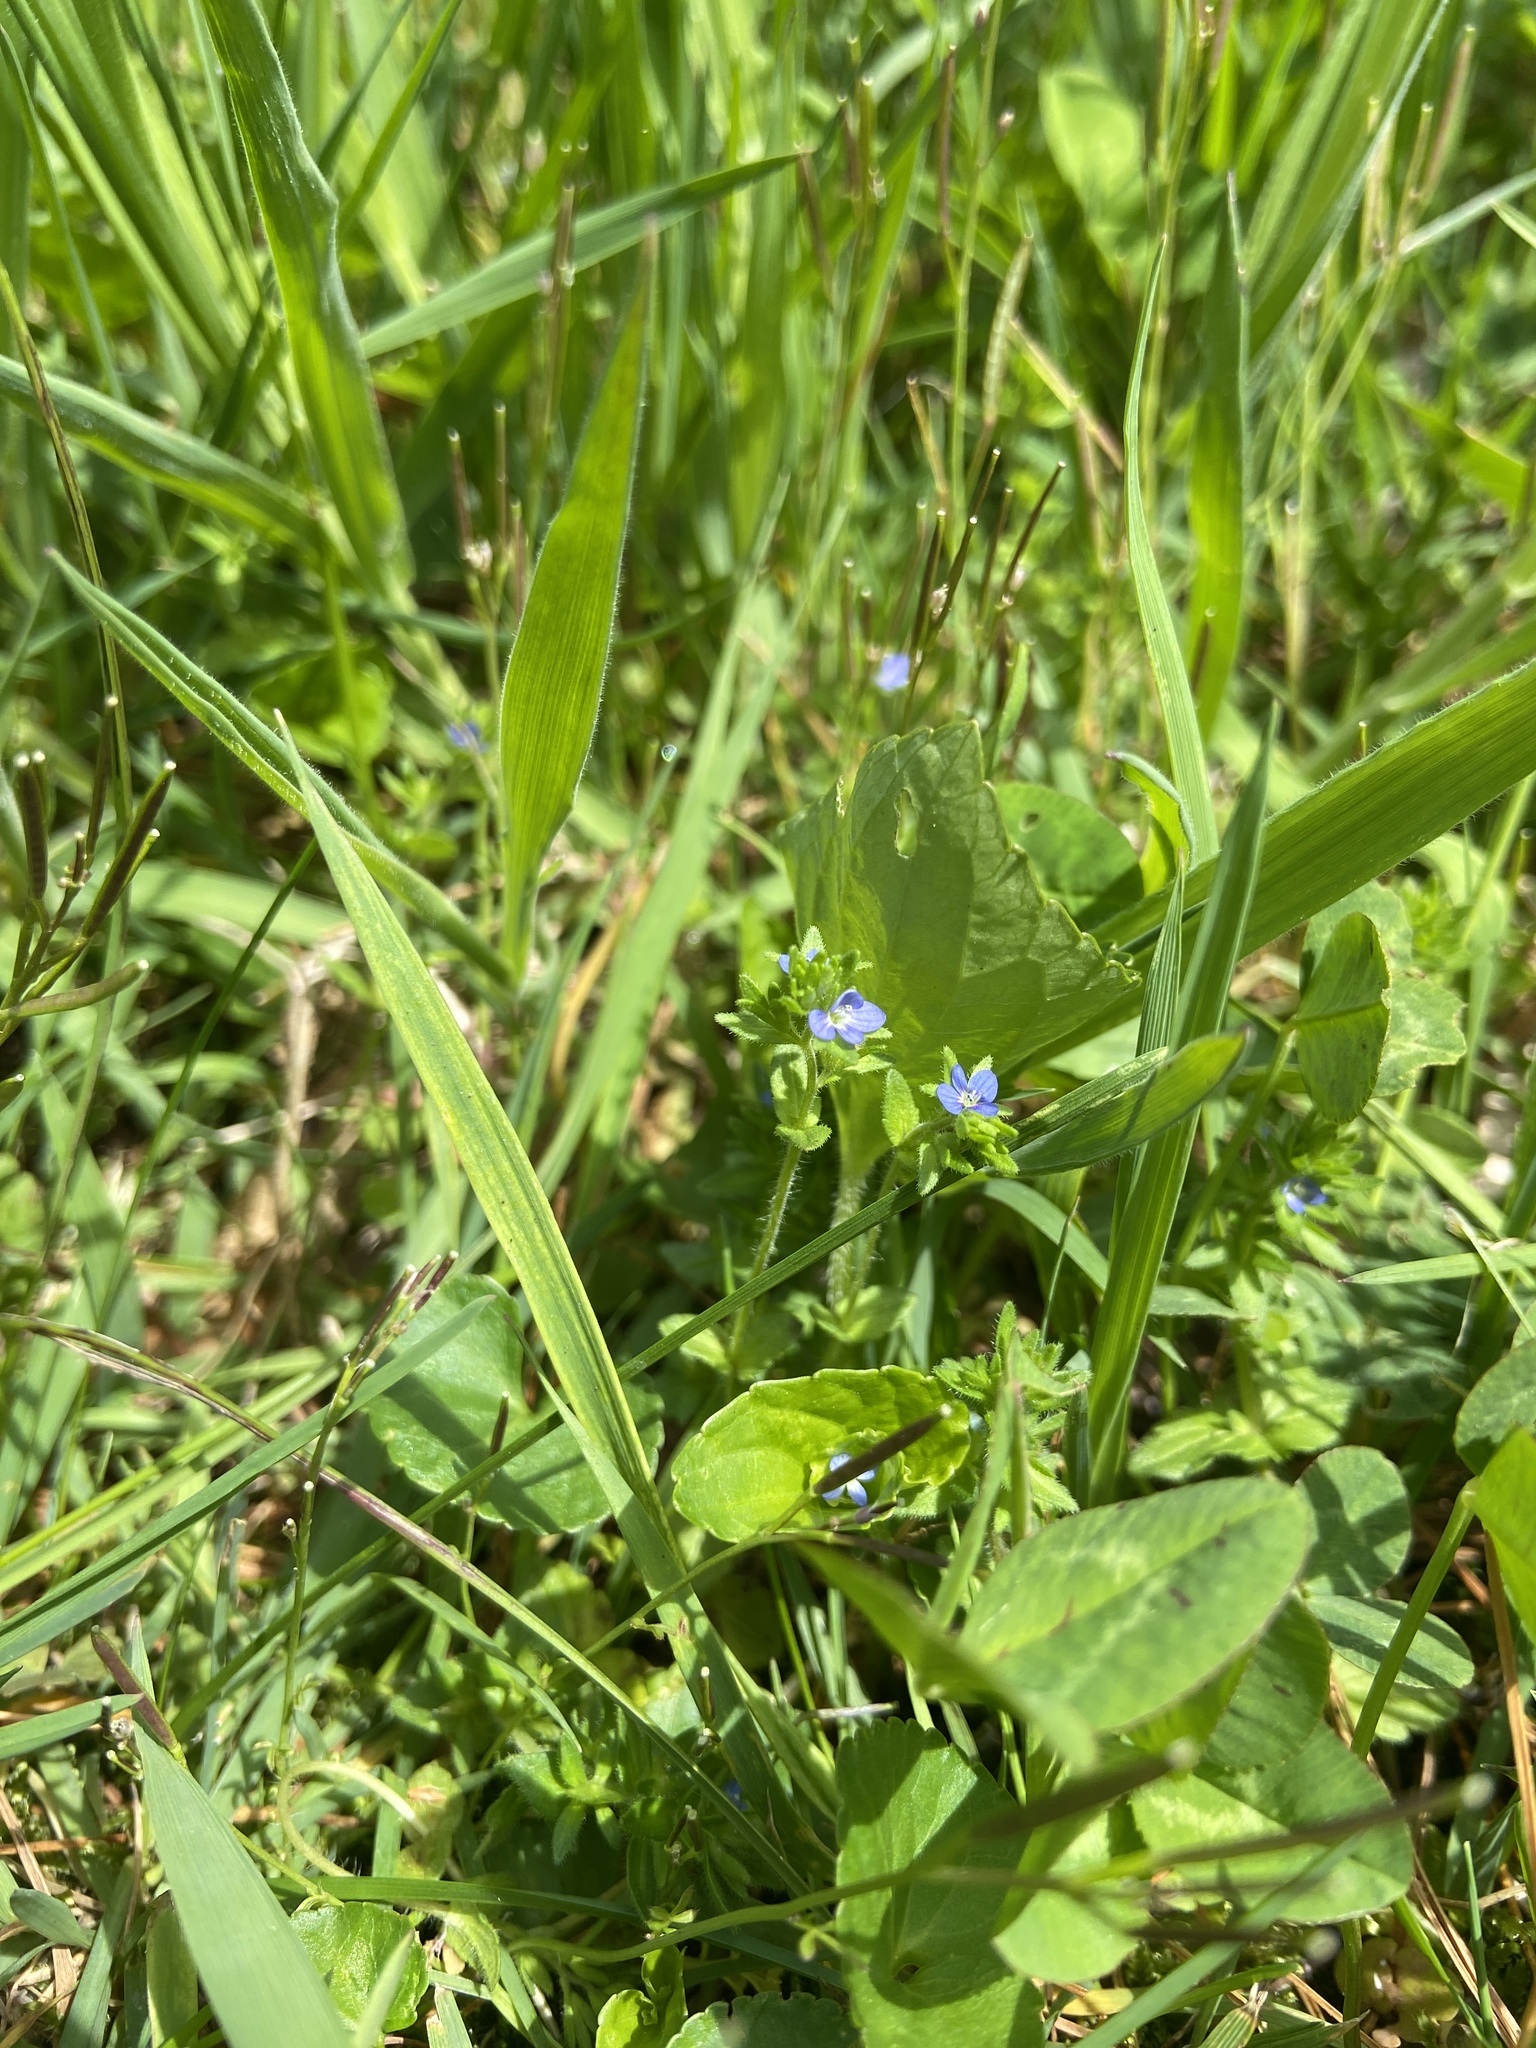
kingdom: Plantae
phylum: Tracheophyta
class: Magnoliopsida
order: Lamiales
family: Plantaginaceae
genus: Veronica
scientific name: Veronica arvensis
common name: Corn speedwell
